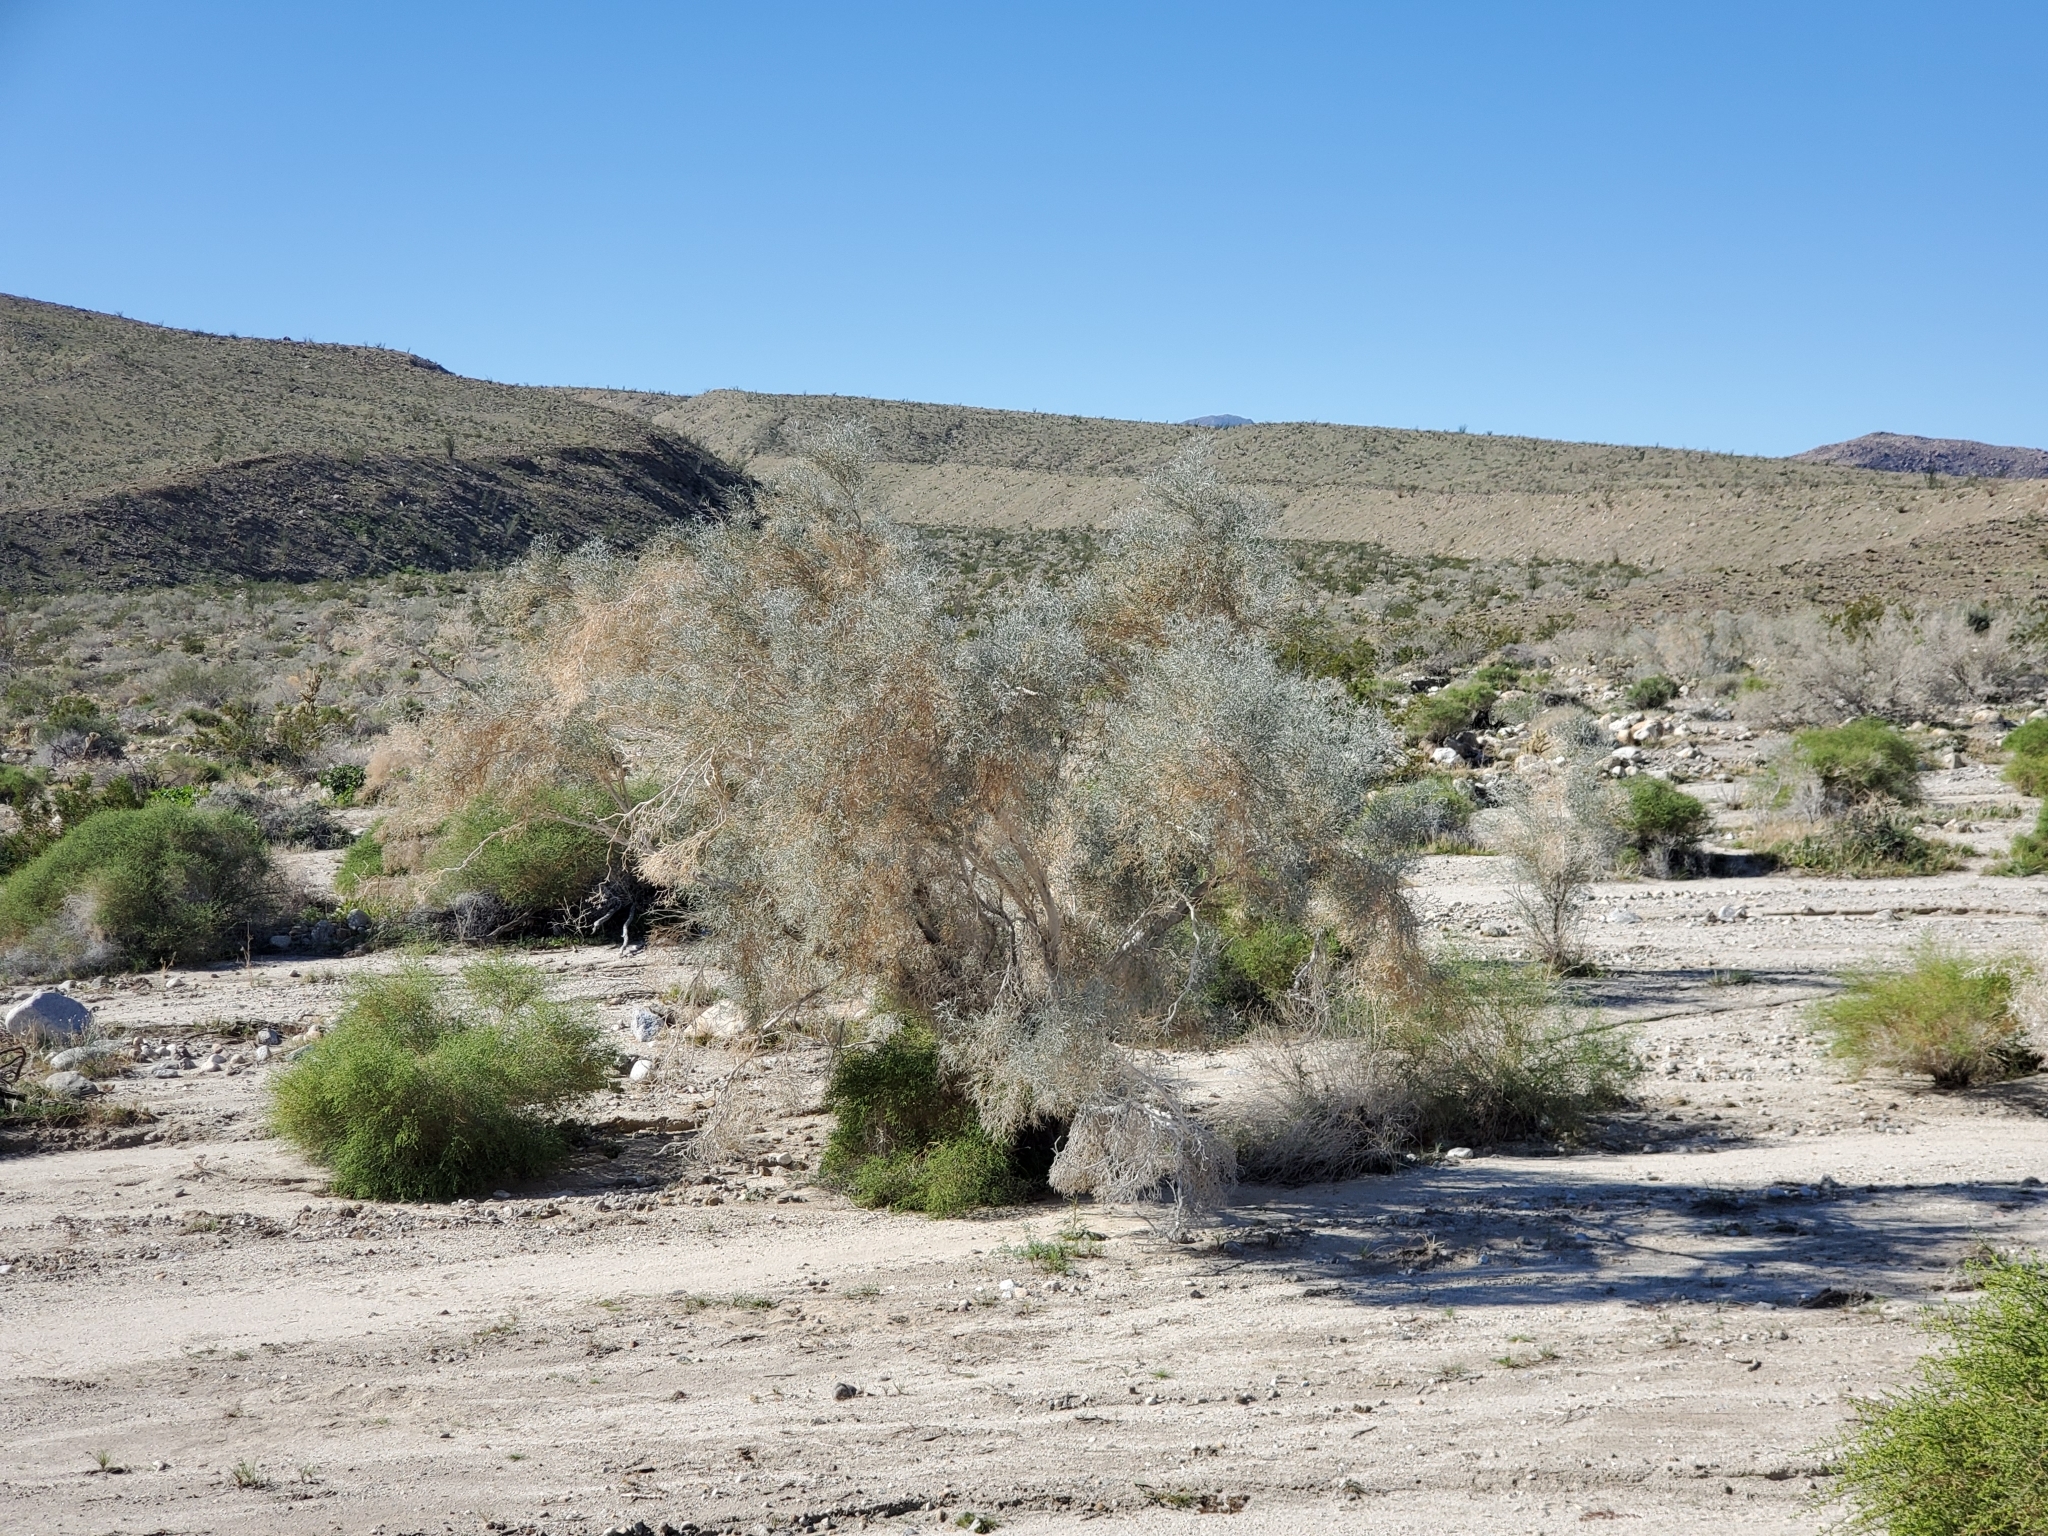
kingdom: Plantae
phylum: Tracheophyta
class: Magnoliopsida
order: Fabales
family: Fabaceae
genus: Psorothamnus
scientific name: Psorothamnus spinosus
